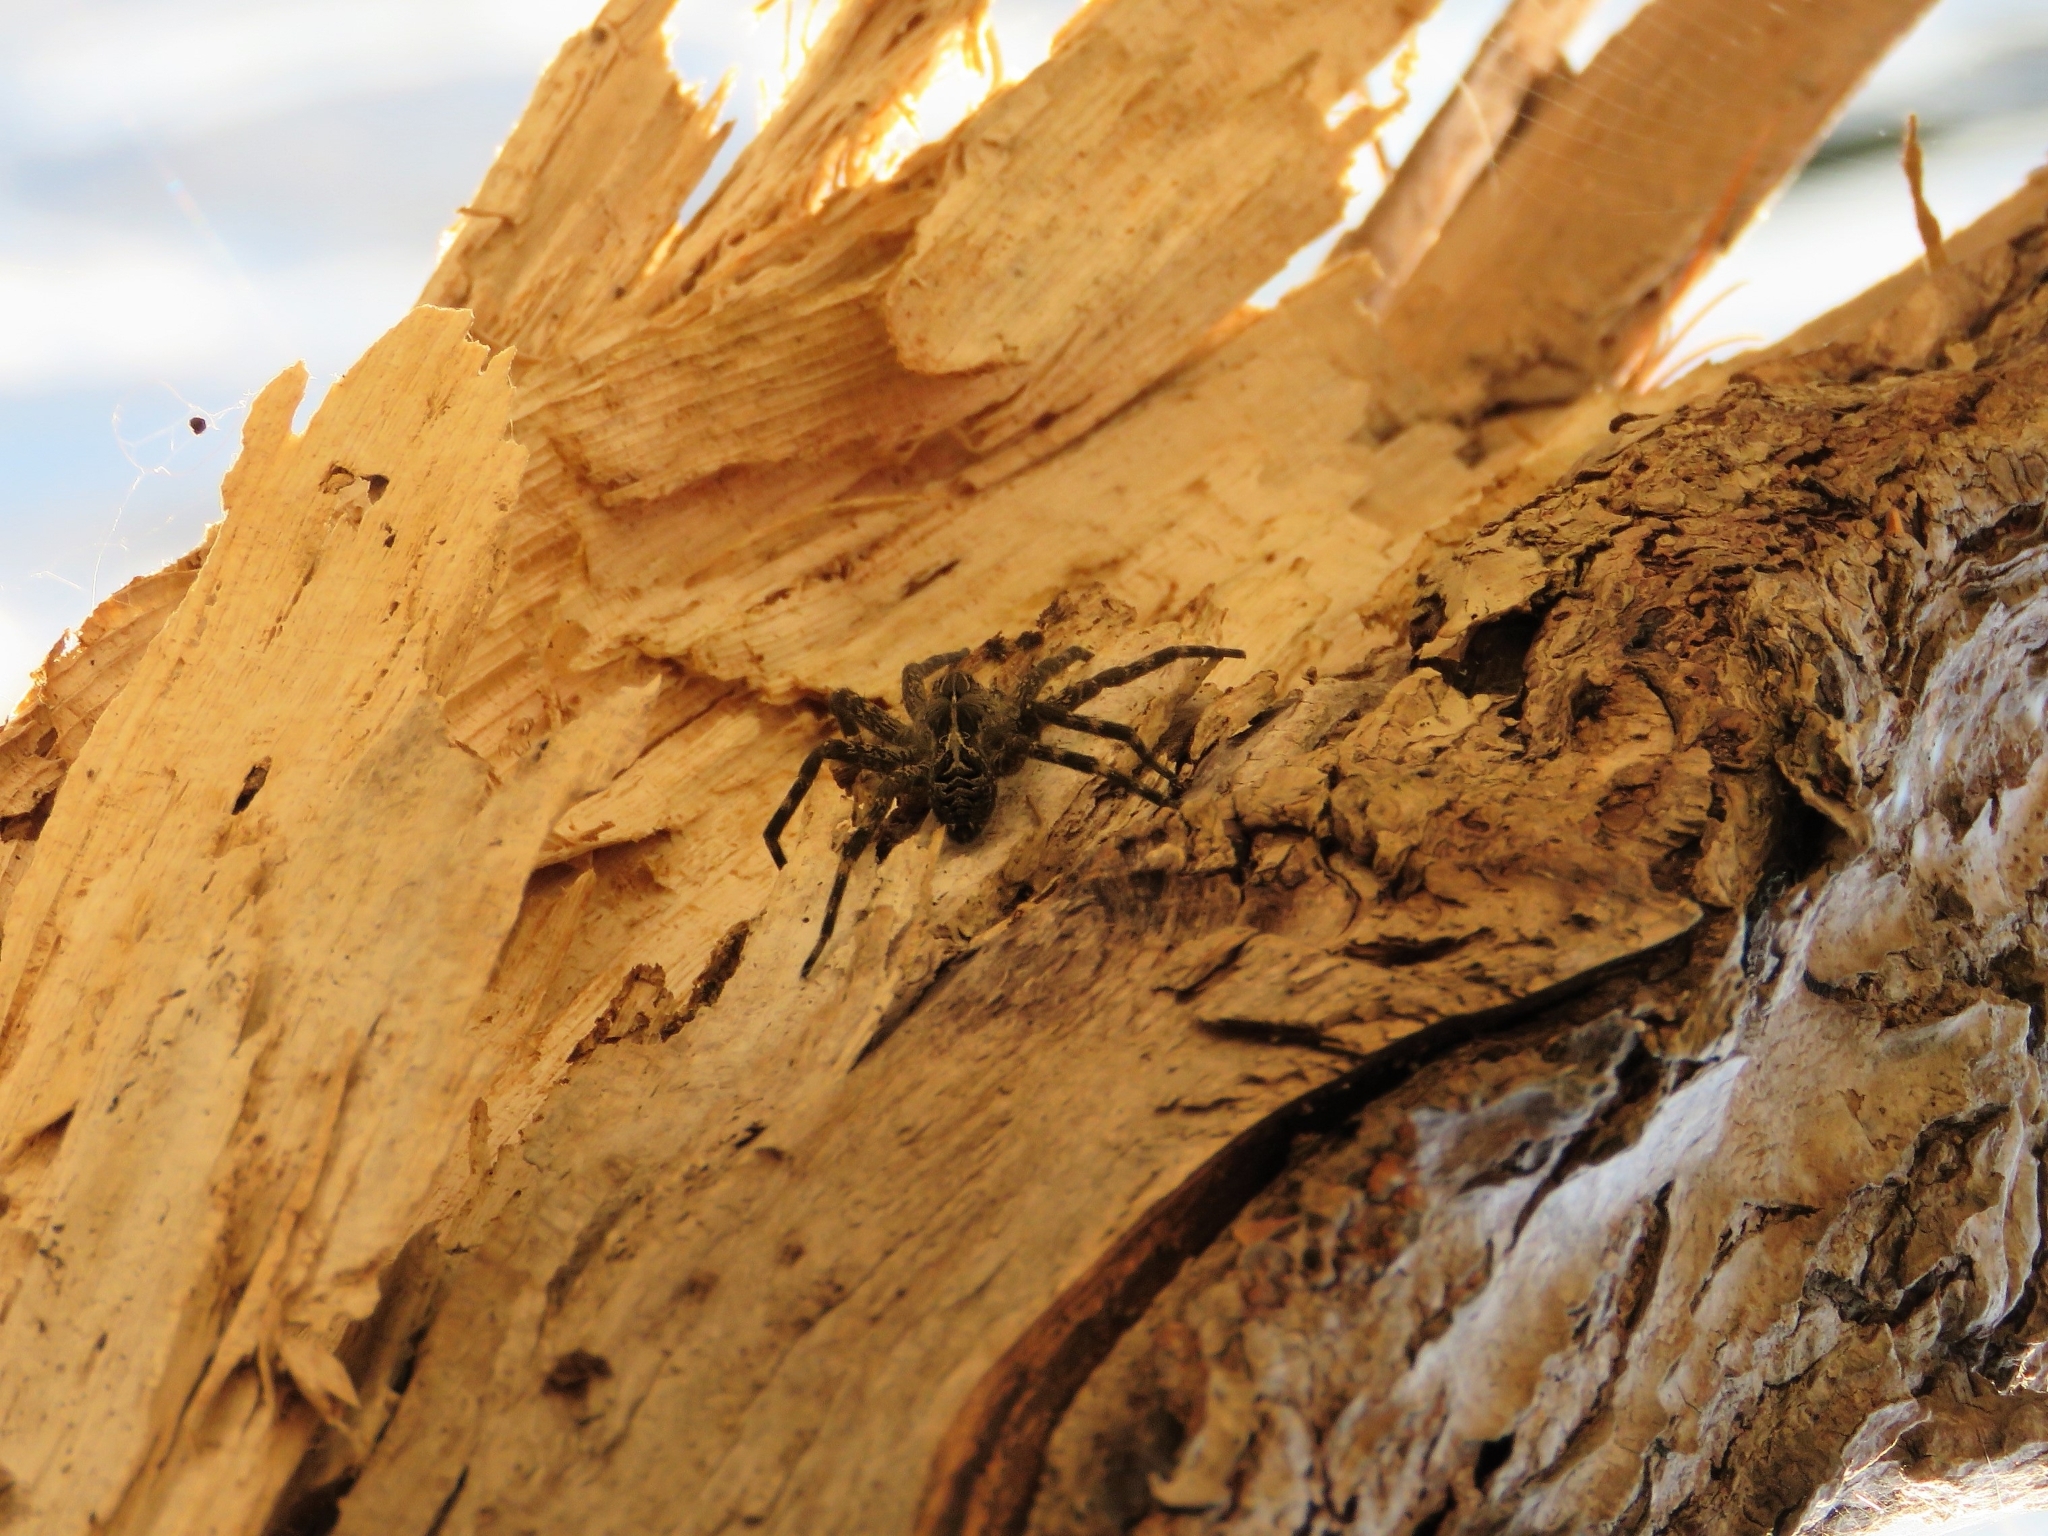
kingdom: Animalia
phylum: Arthropoda
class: Arachnida
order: Araneae
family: Pisauridae
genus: Dolomedes
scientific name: Dolomedes scriptus
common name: Striped fishing spider
